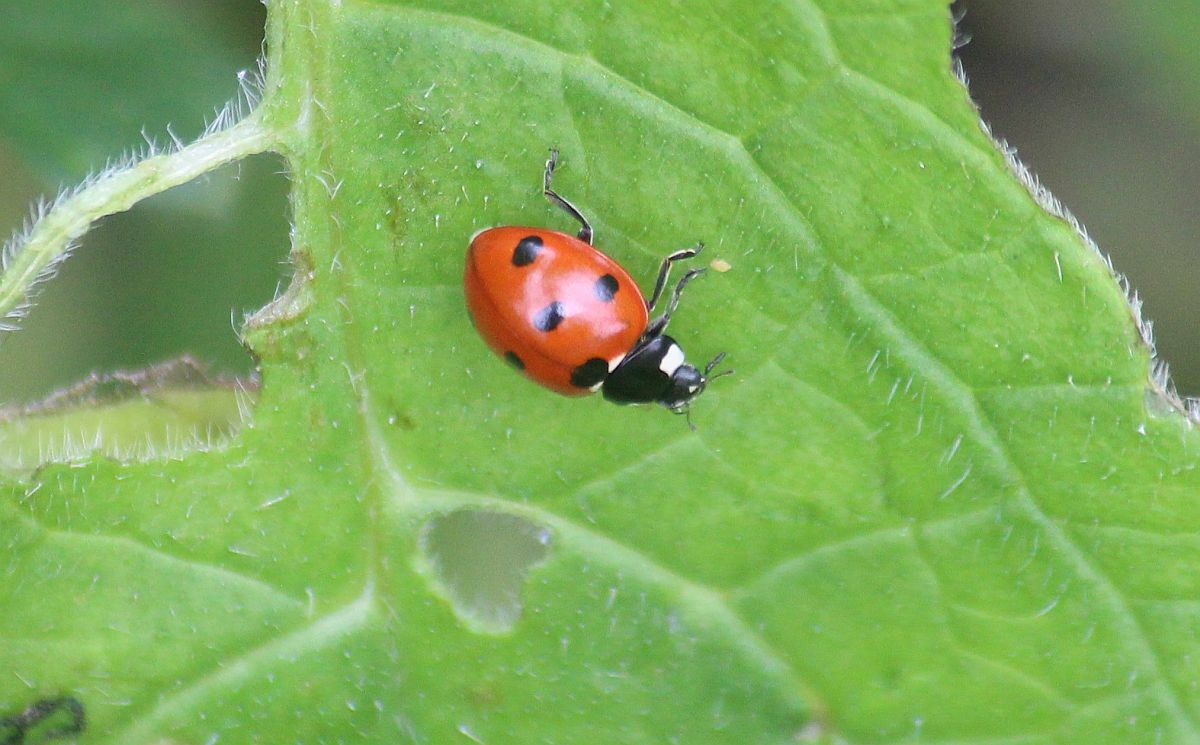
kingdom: Animalia
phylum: Arthropoda
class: Insecta
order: Coleoptera
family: Coccinellidae
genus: Coccinella
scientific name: Coccinella septempunctata
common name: Sevenspotted lady beetle
